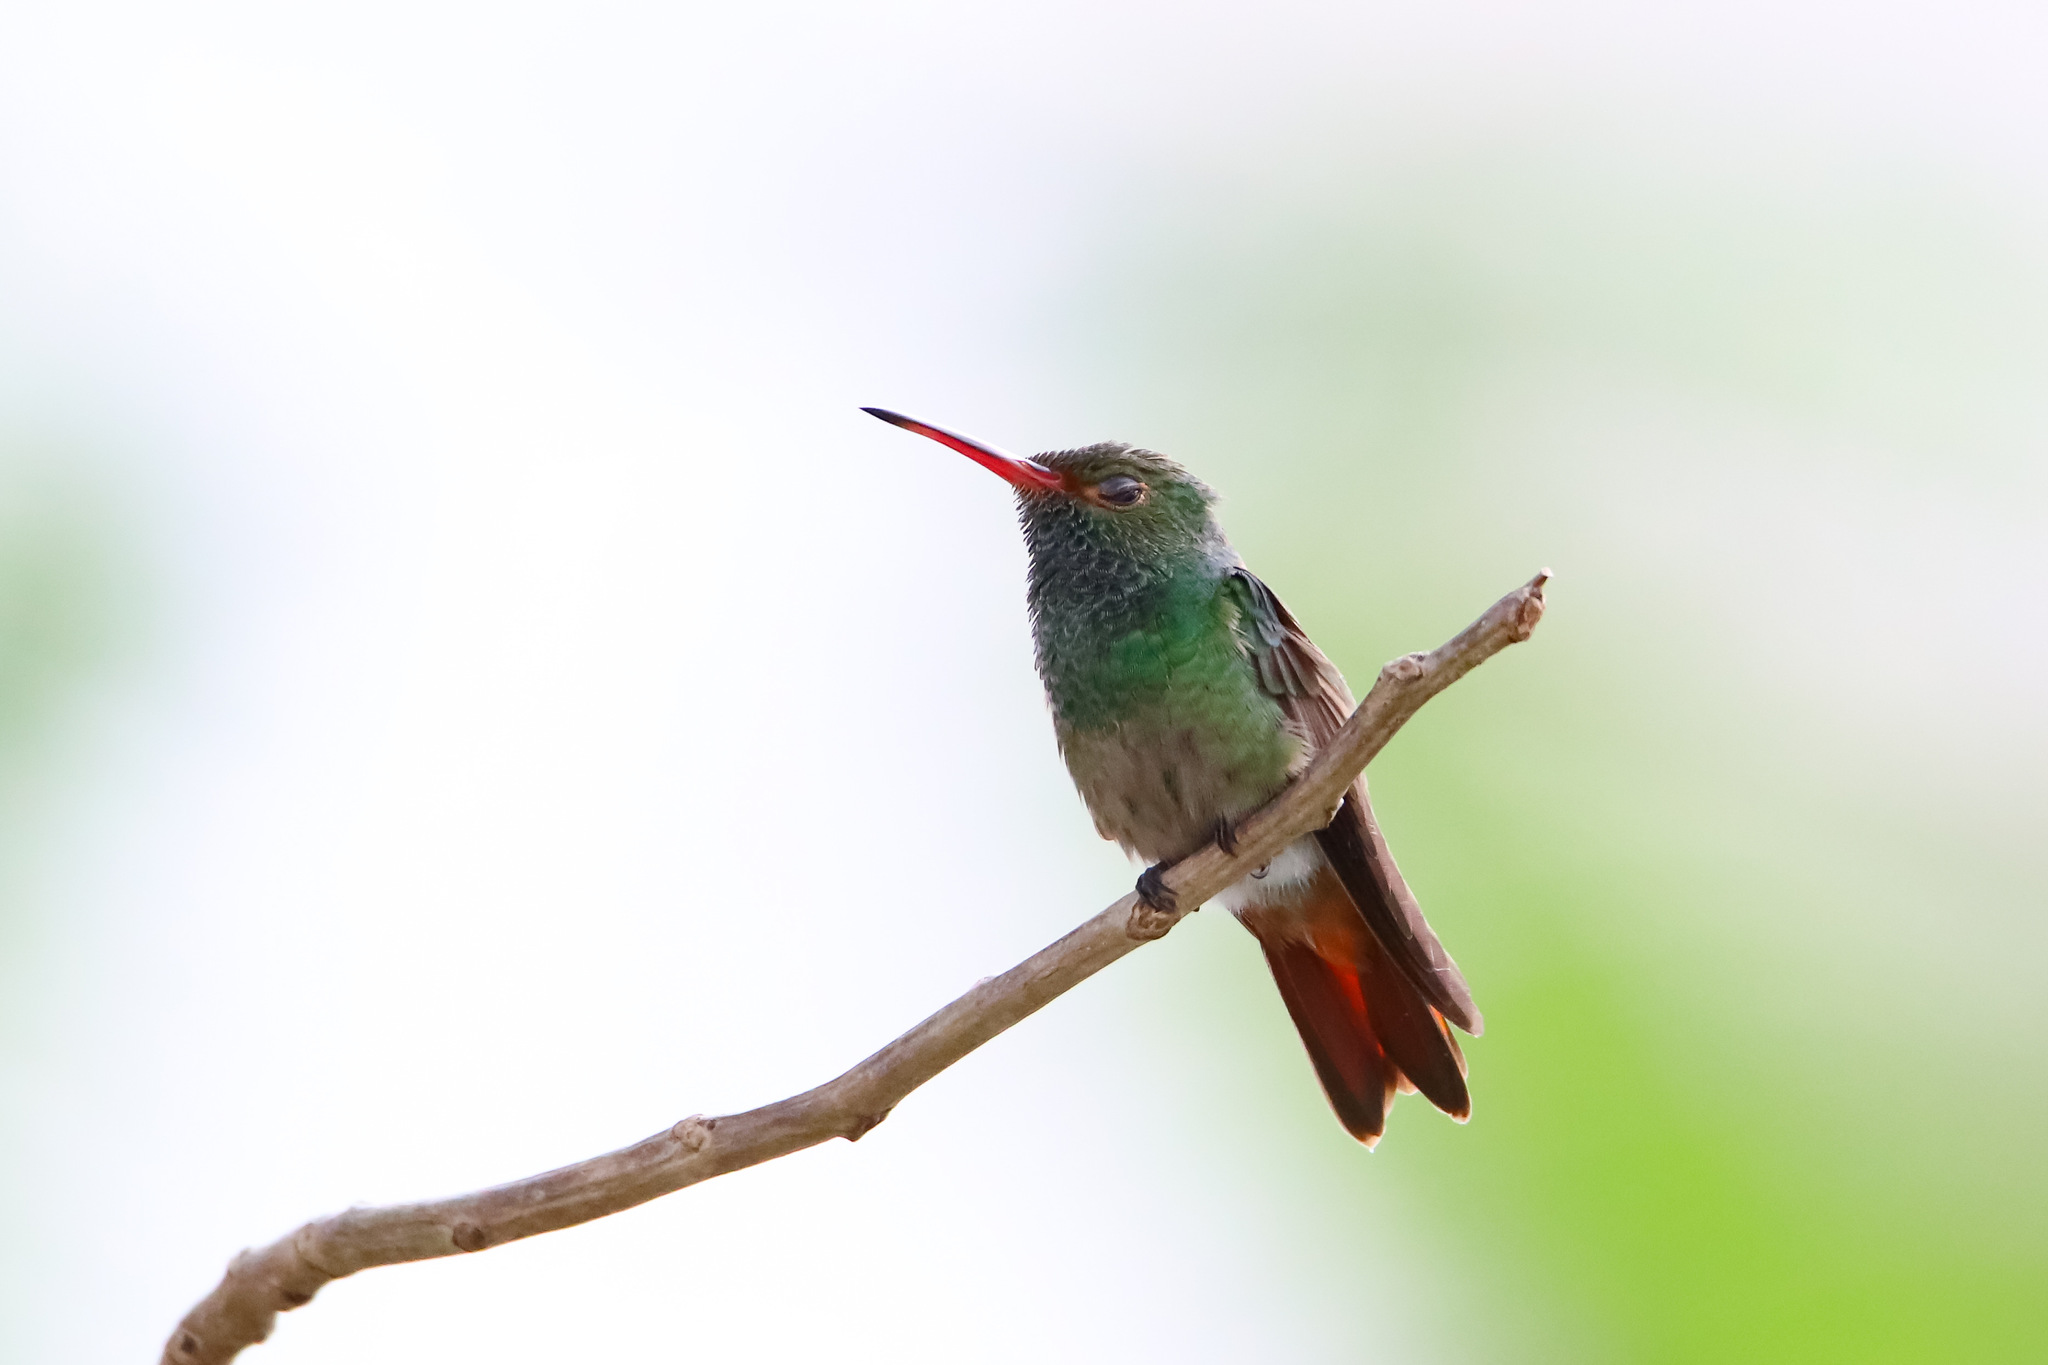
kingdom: Animalia
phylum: Chordata
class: Aves
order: Apodiformes
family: Trochilidae
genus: Amazilia
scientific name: Amazilia tzacatl
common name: Rufous-tailed hummingbird
